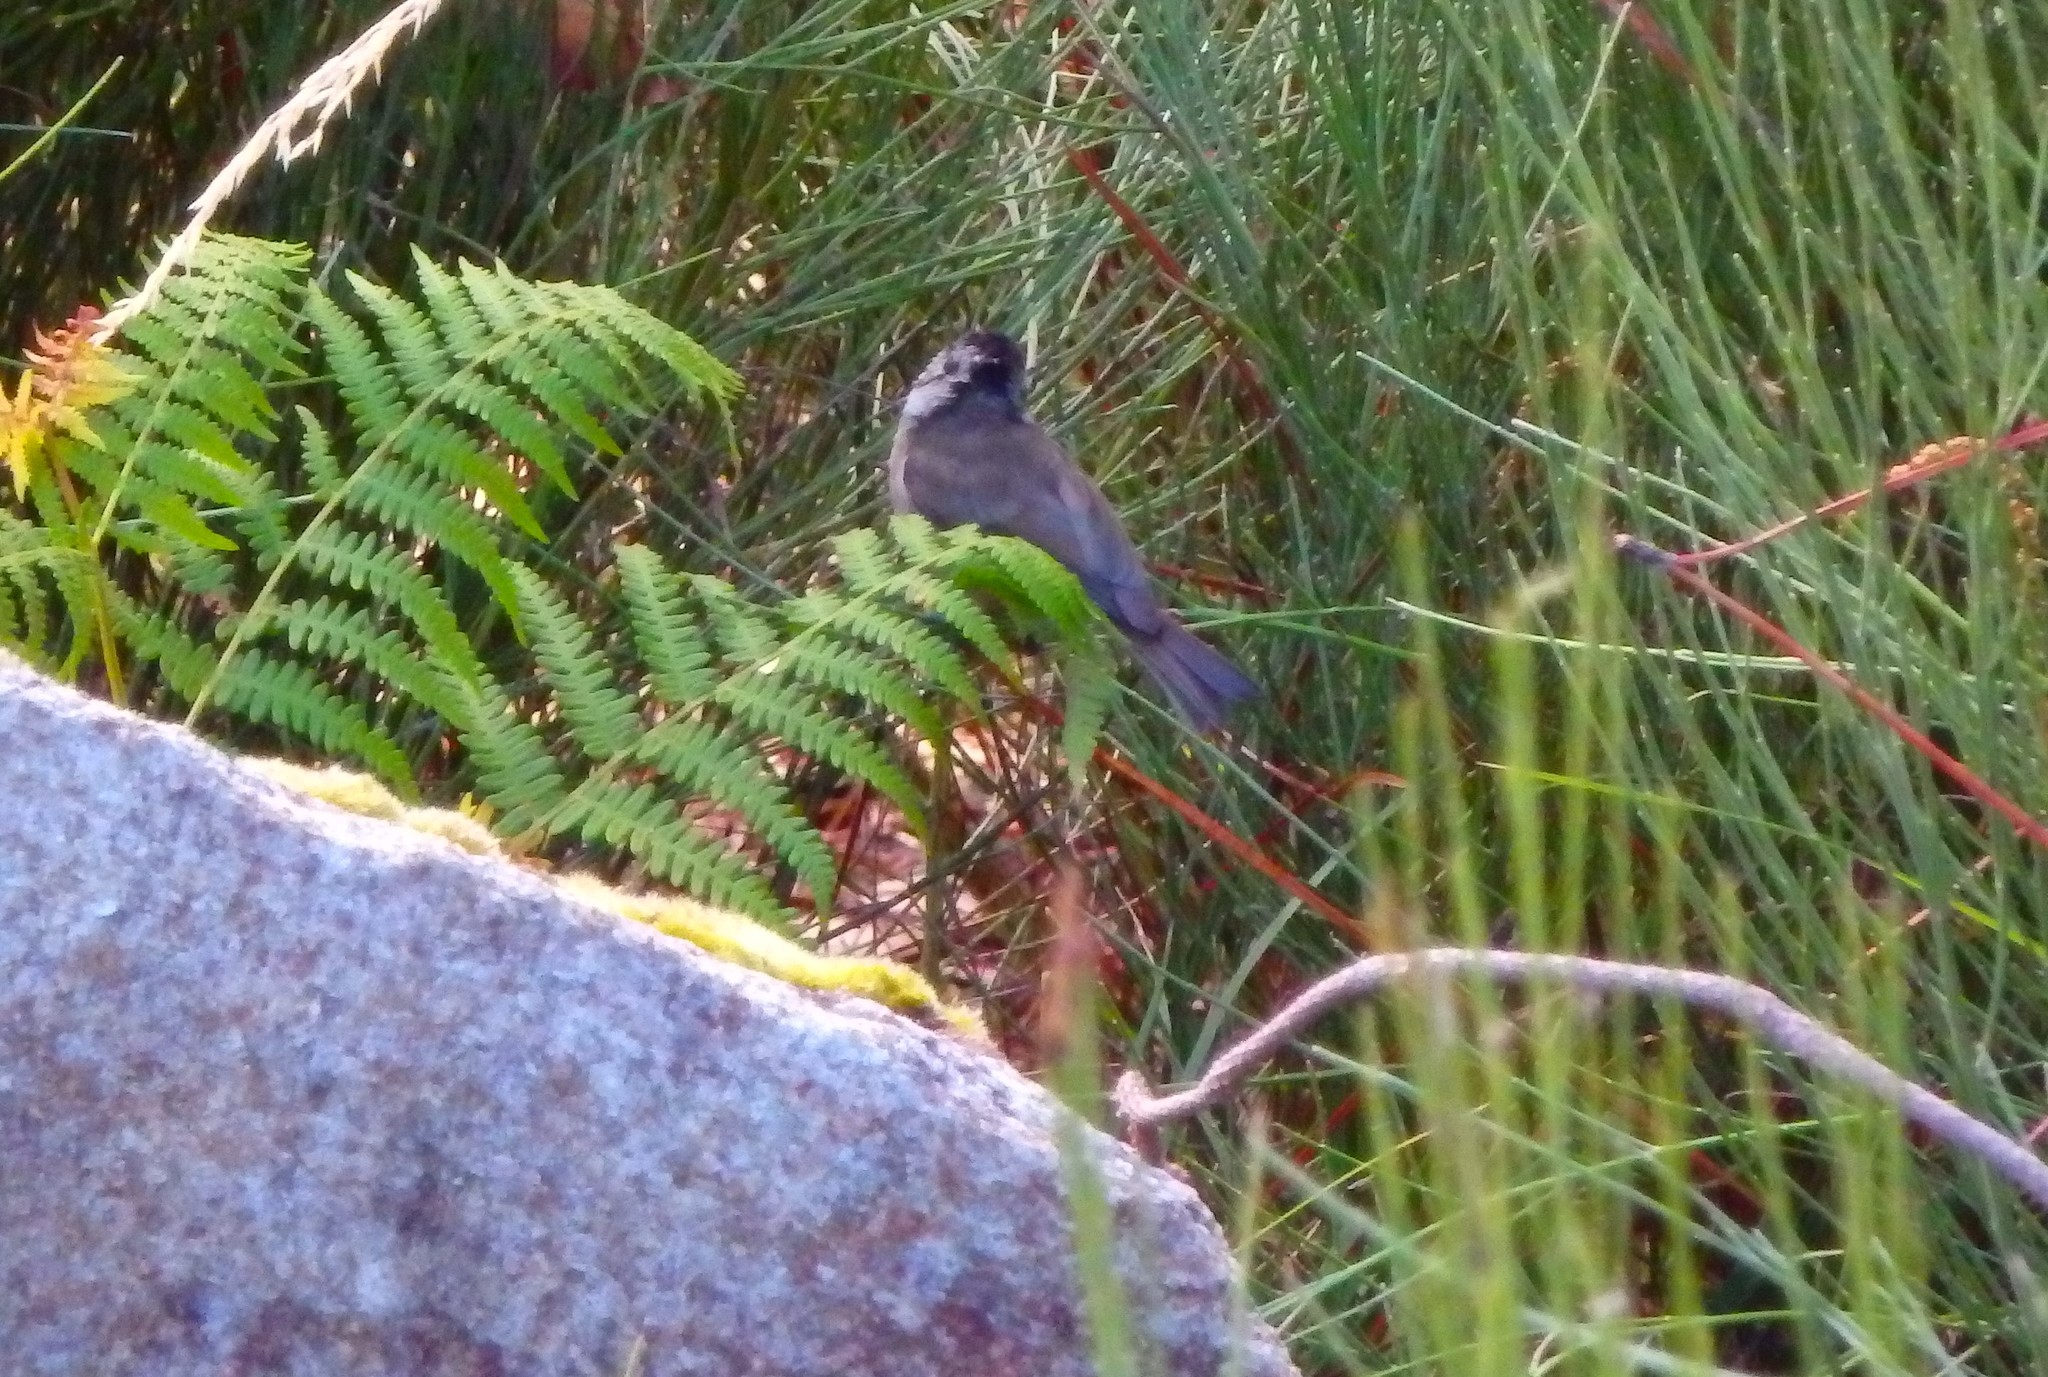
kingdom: Animalia
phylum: Chordata
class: Aves
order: Passeriformes
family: Paridae
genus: Lophophanes
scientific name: Lophophanes cristatus
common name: European crested tit
